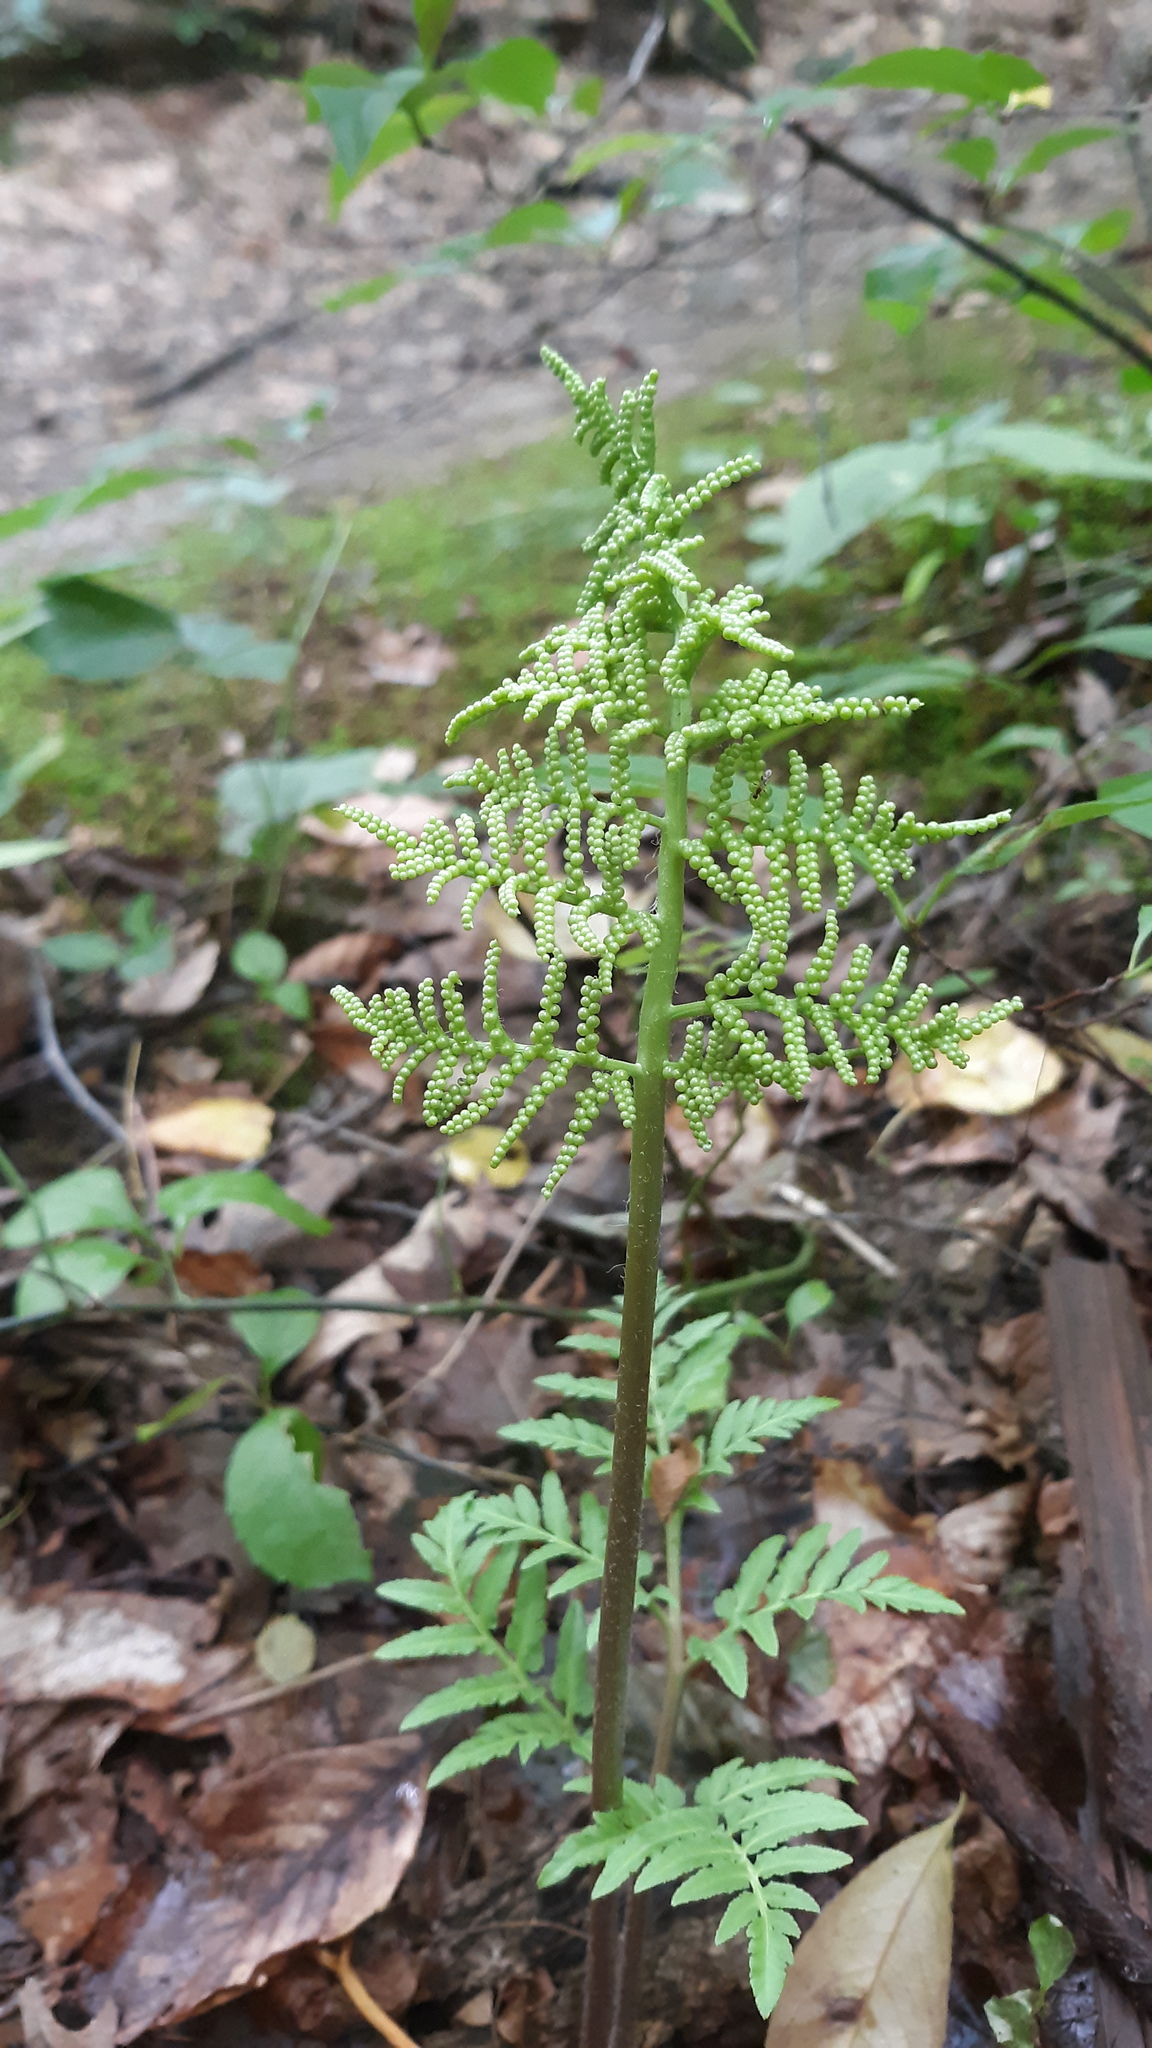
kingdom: Plantae
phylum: Tracheophyta
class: Polypodiopsida
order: Ophioglossales
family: Ophioglossaceae
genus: Sceptridium
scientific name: Sceptridium dissectum
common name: Cut-leaved grapefern
